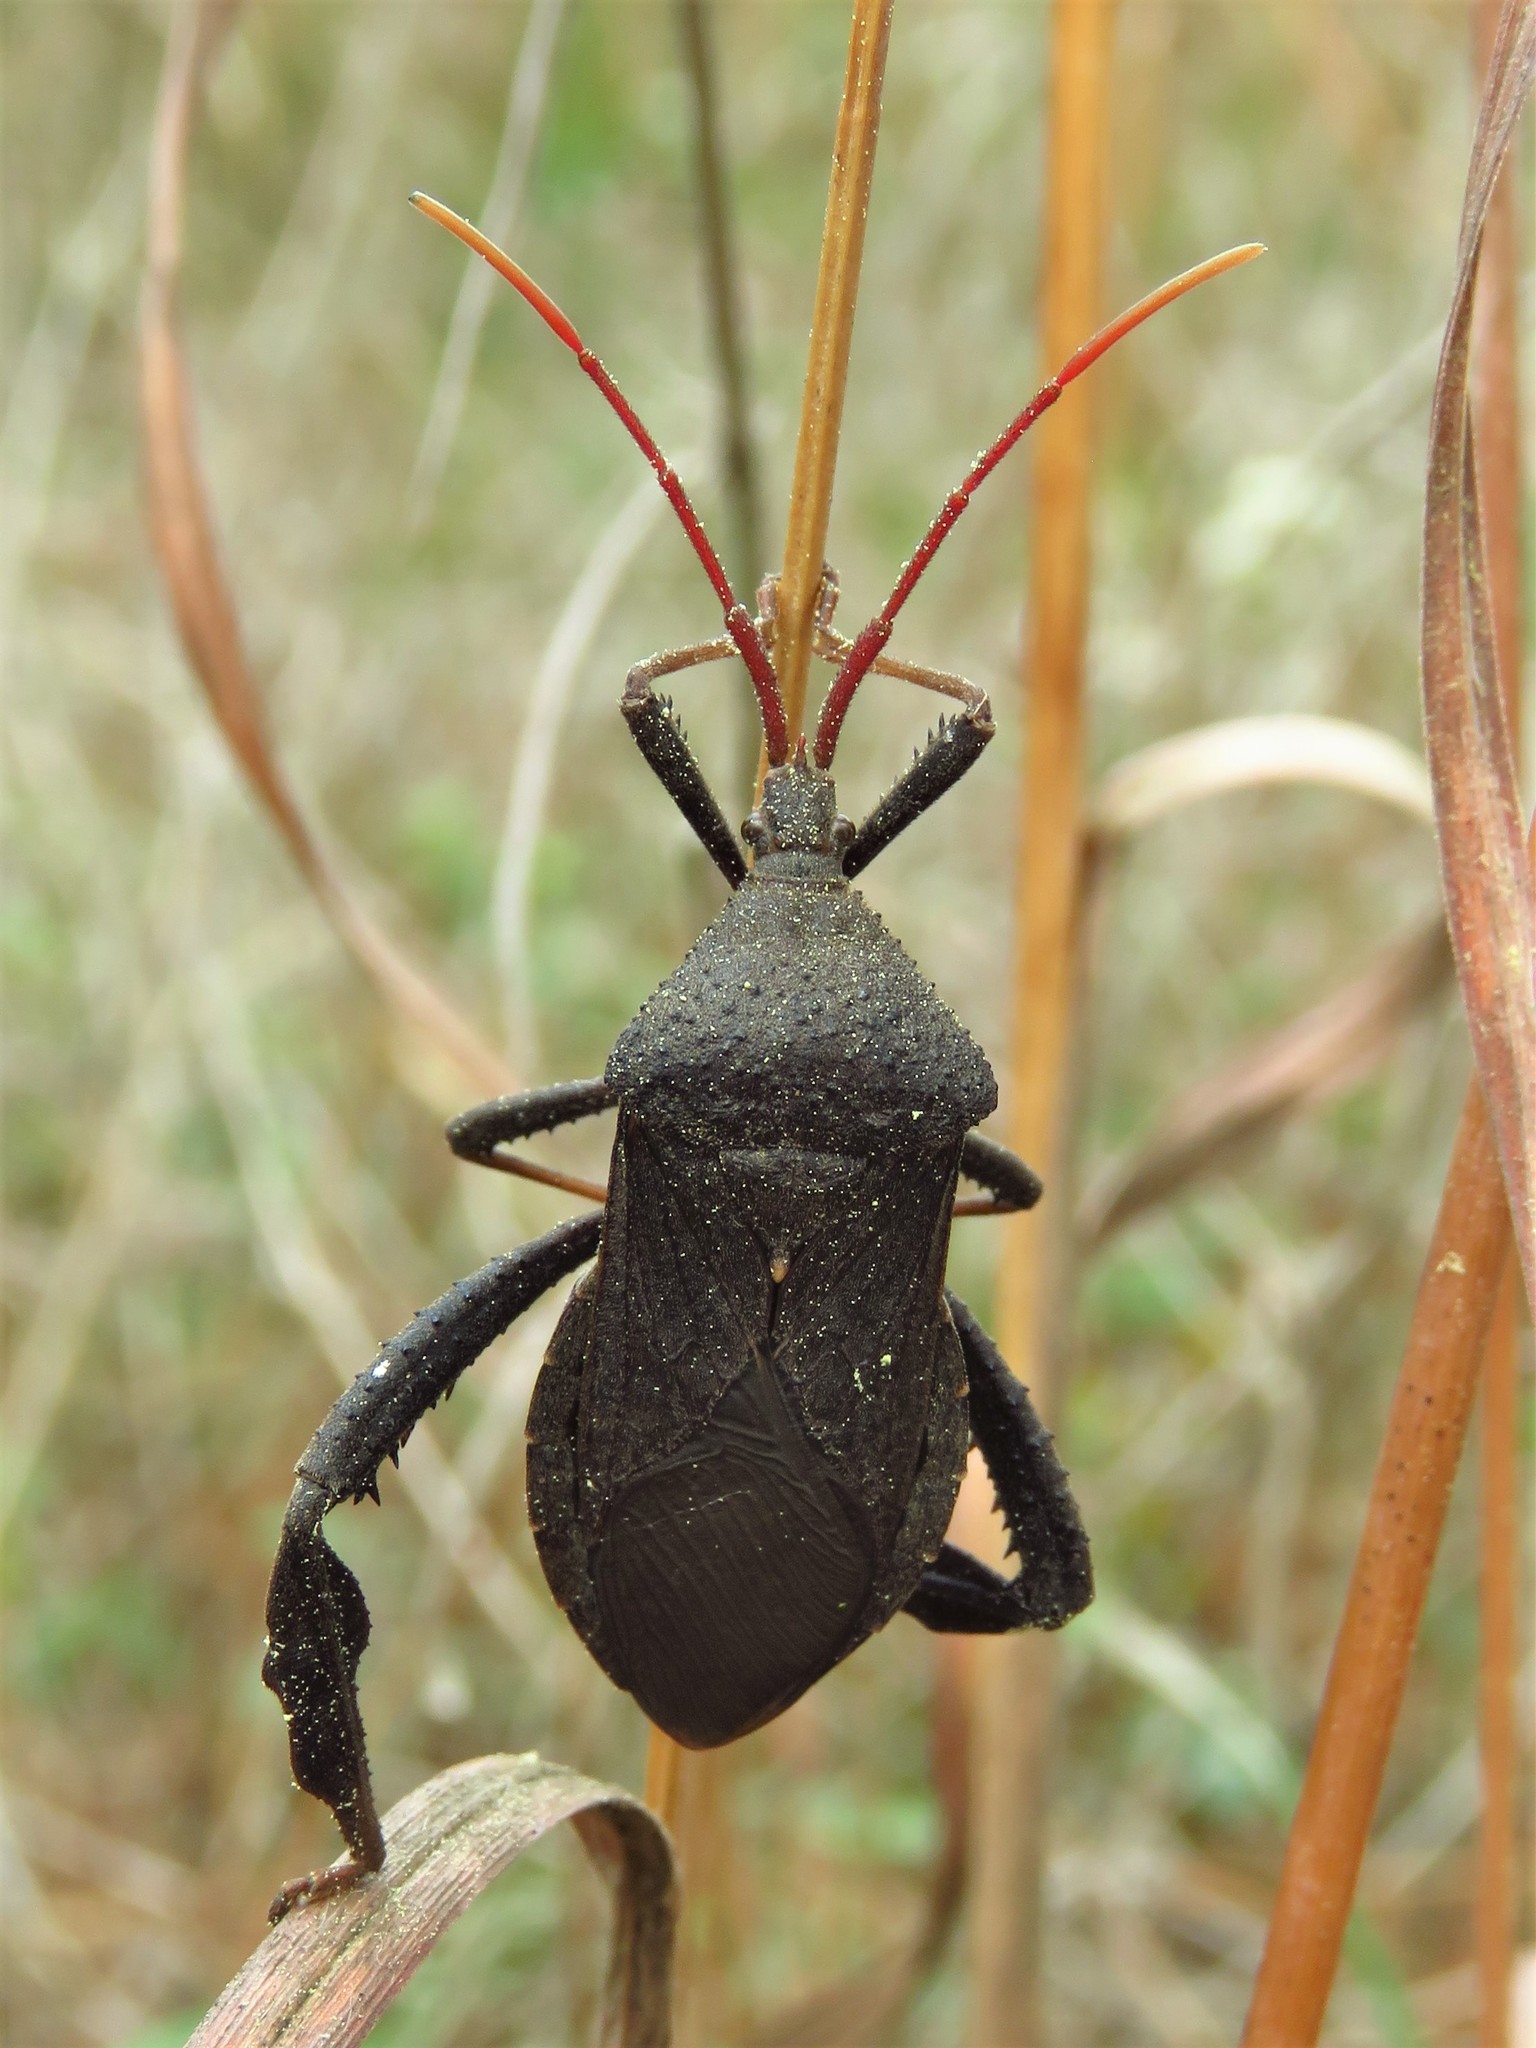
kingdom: Animalia
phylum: Arthropoda
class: Insecta
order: Hemiptera
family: Coreidae
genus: Acanthocephala
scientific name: Acanthocephala femorata
